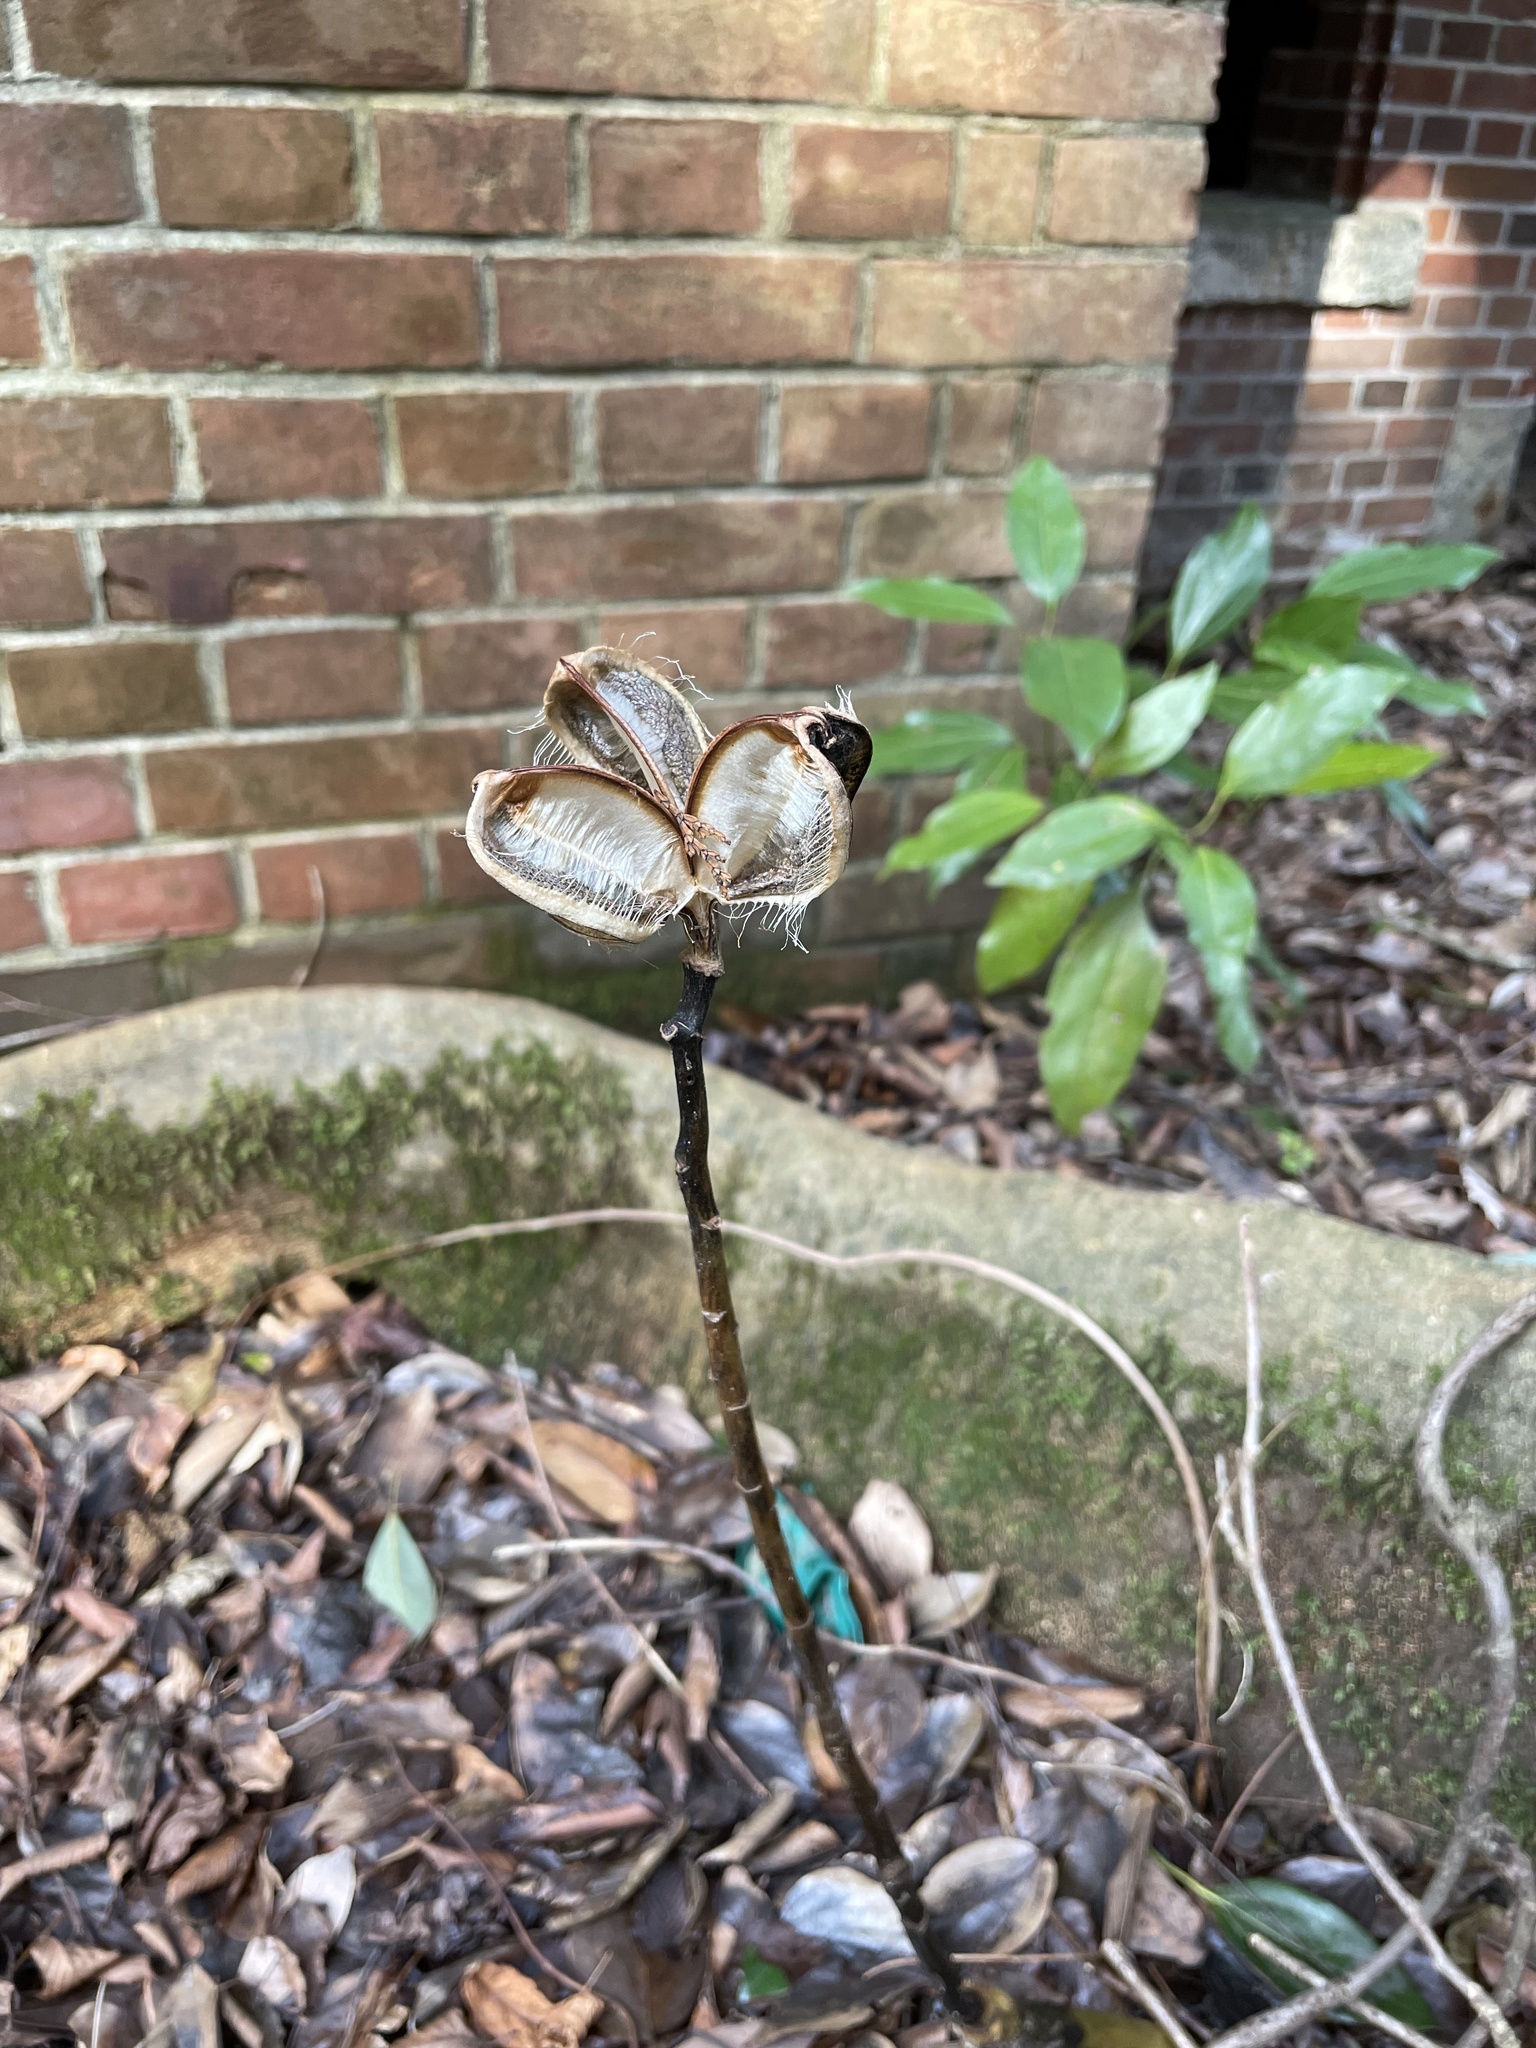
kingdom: Plantae
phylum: Tracheophyta
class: Liliopsida
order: Liliales
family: Liliaceae
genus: Cardiocrinum
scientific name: Cardiocrinum cordatum
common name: Lily
